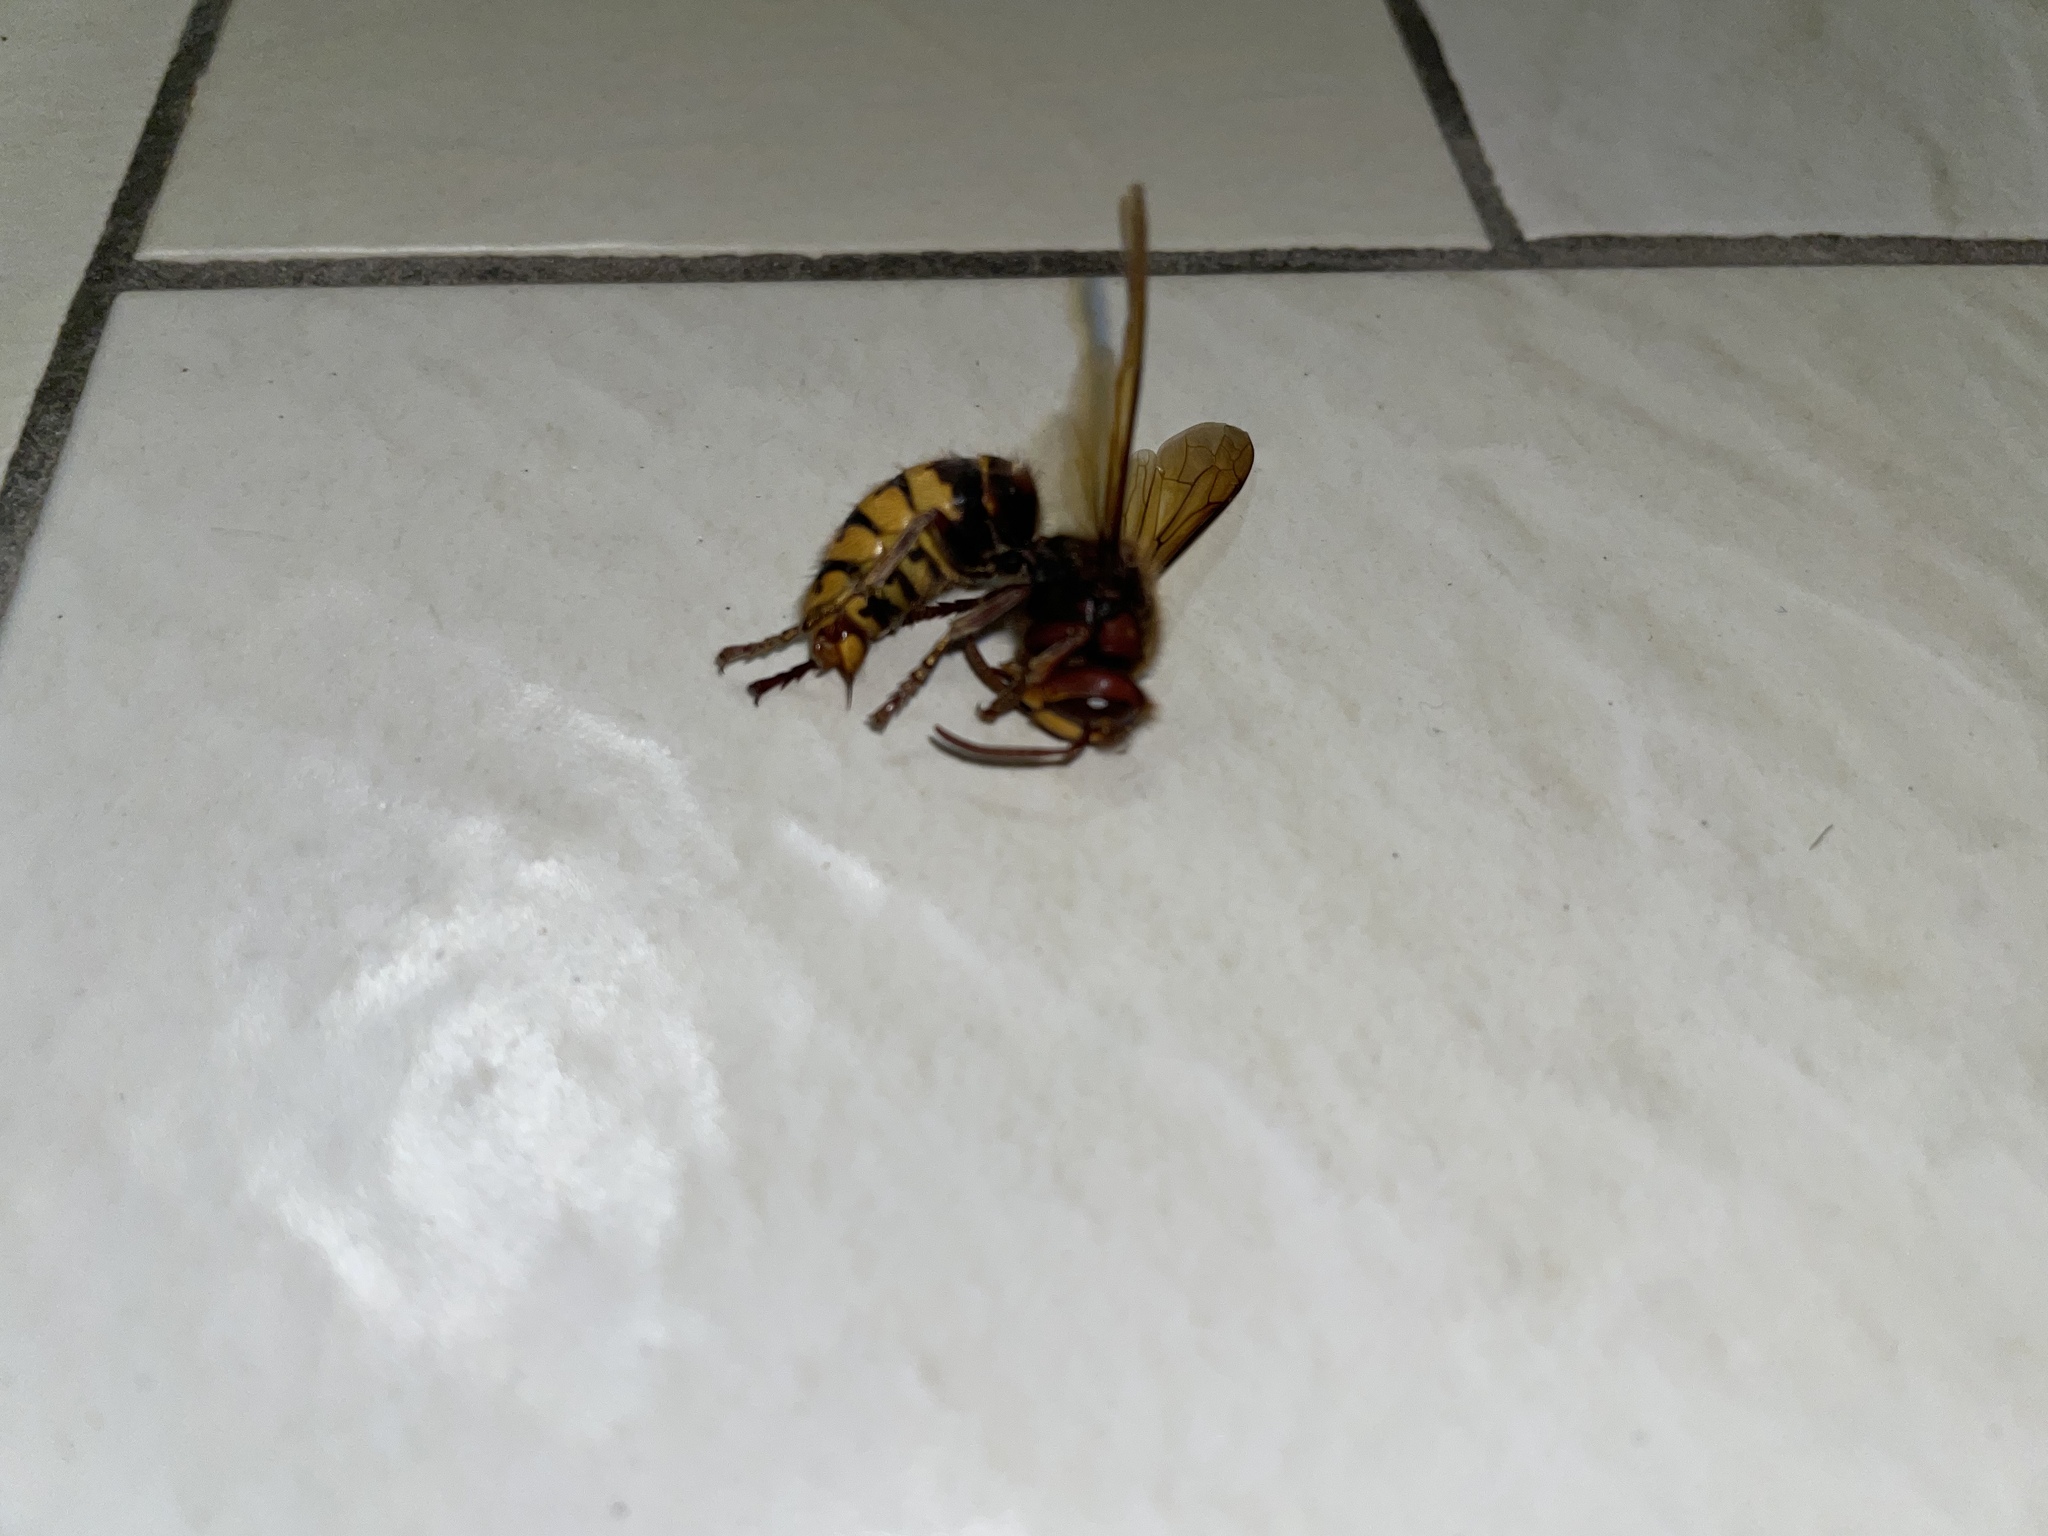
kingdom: Animalia
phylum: Arthropoda
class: Insecta
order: Hymenoptera
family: Vespidae
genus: Vespa
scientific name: Vespa crabro
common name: Hornet
